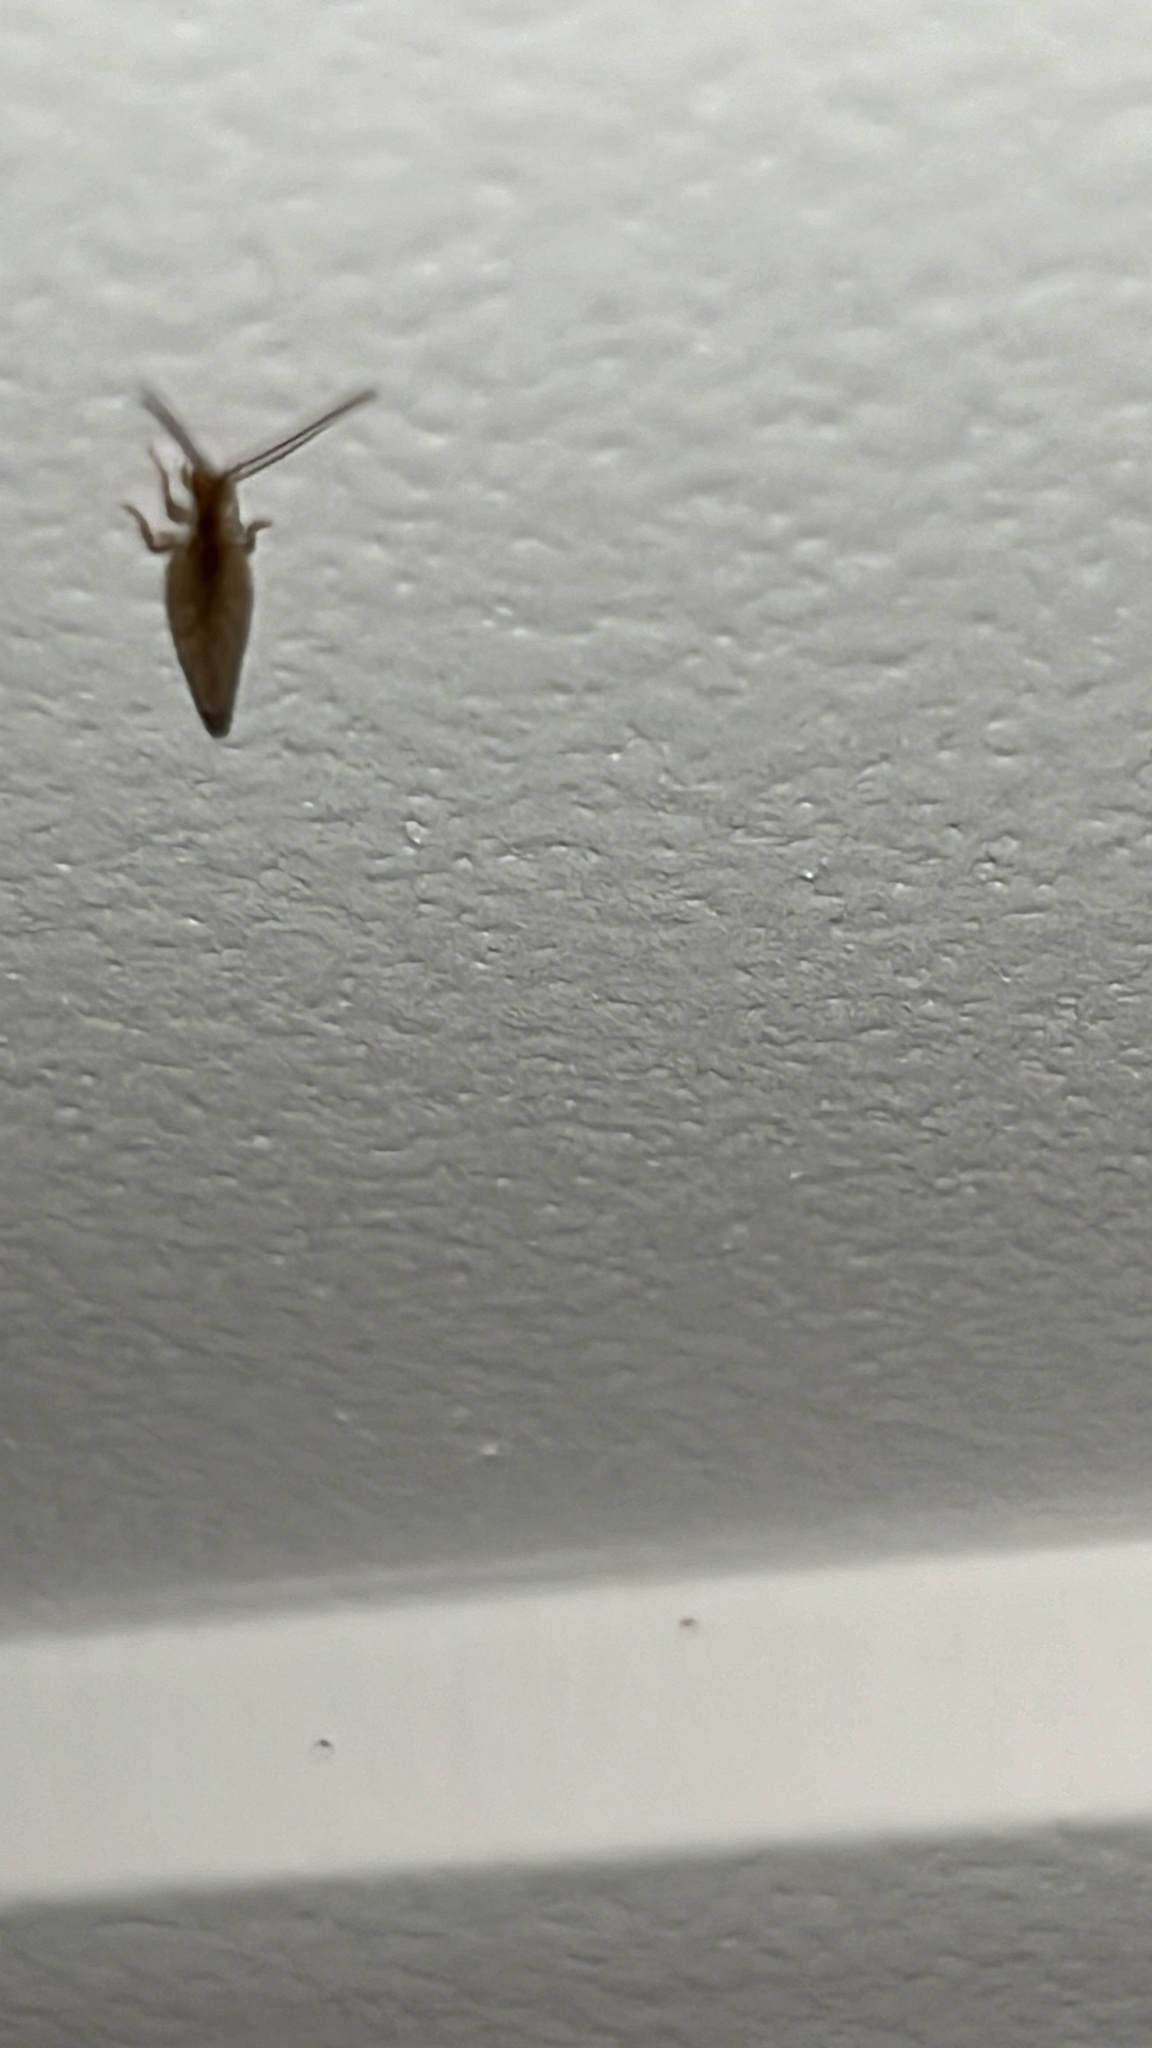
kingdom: Animalia
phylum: Arthropoda
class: Insecta
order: Neuroptera
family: Hemerobiidae
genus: Micromus
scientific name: Micromus tasmaniae
